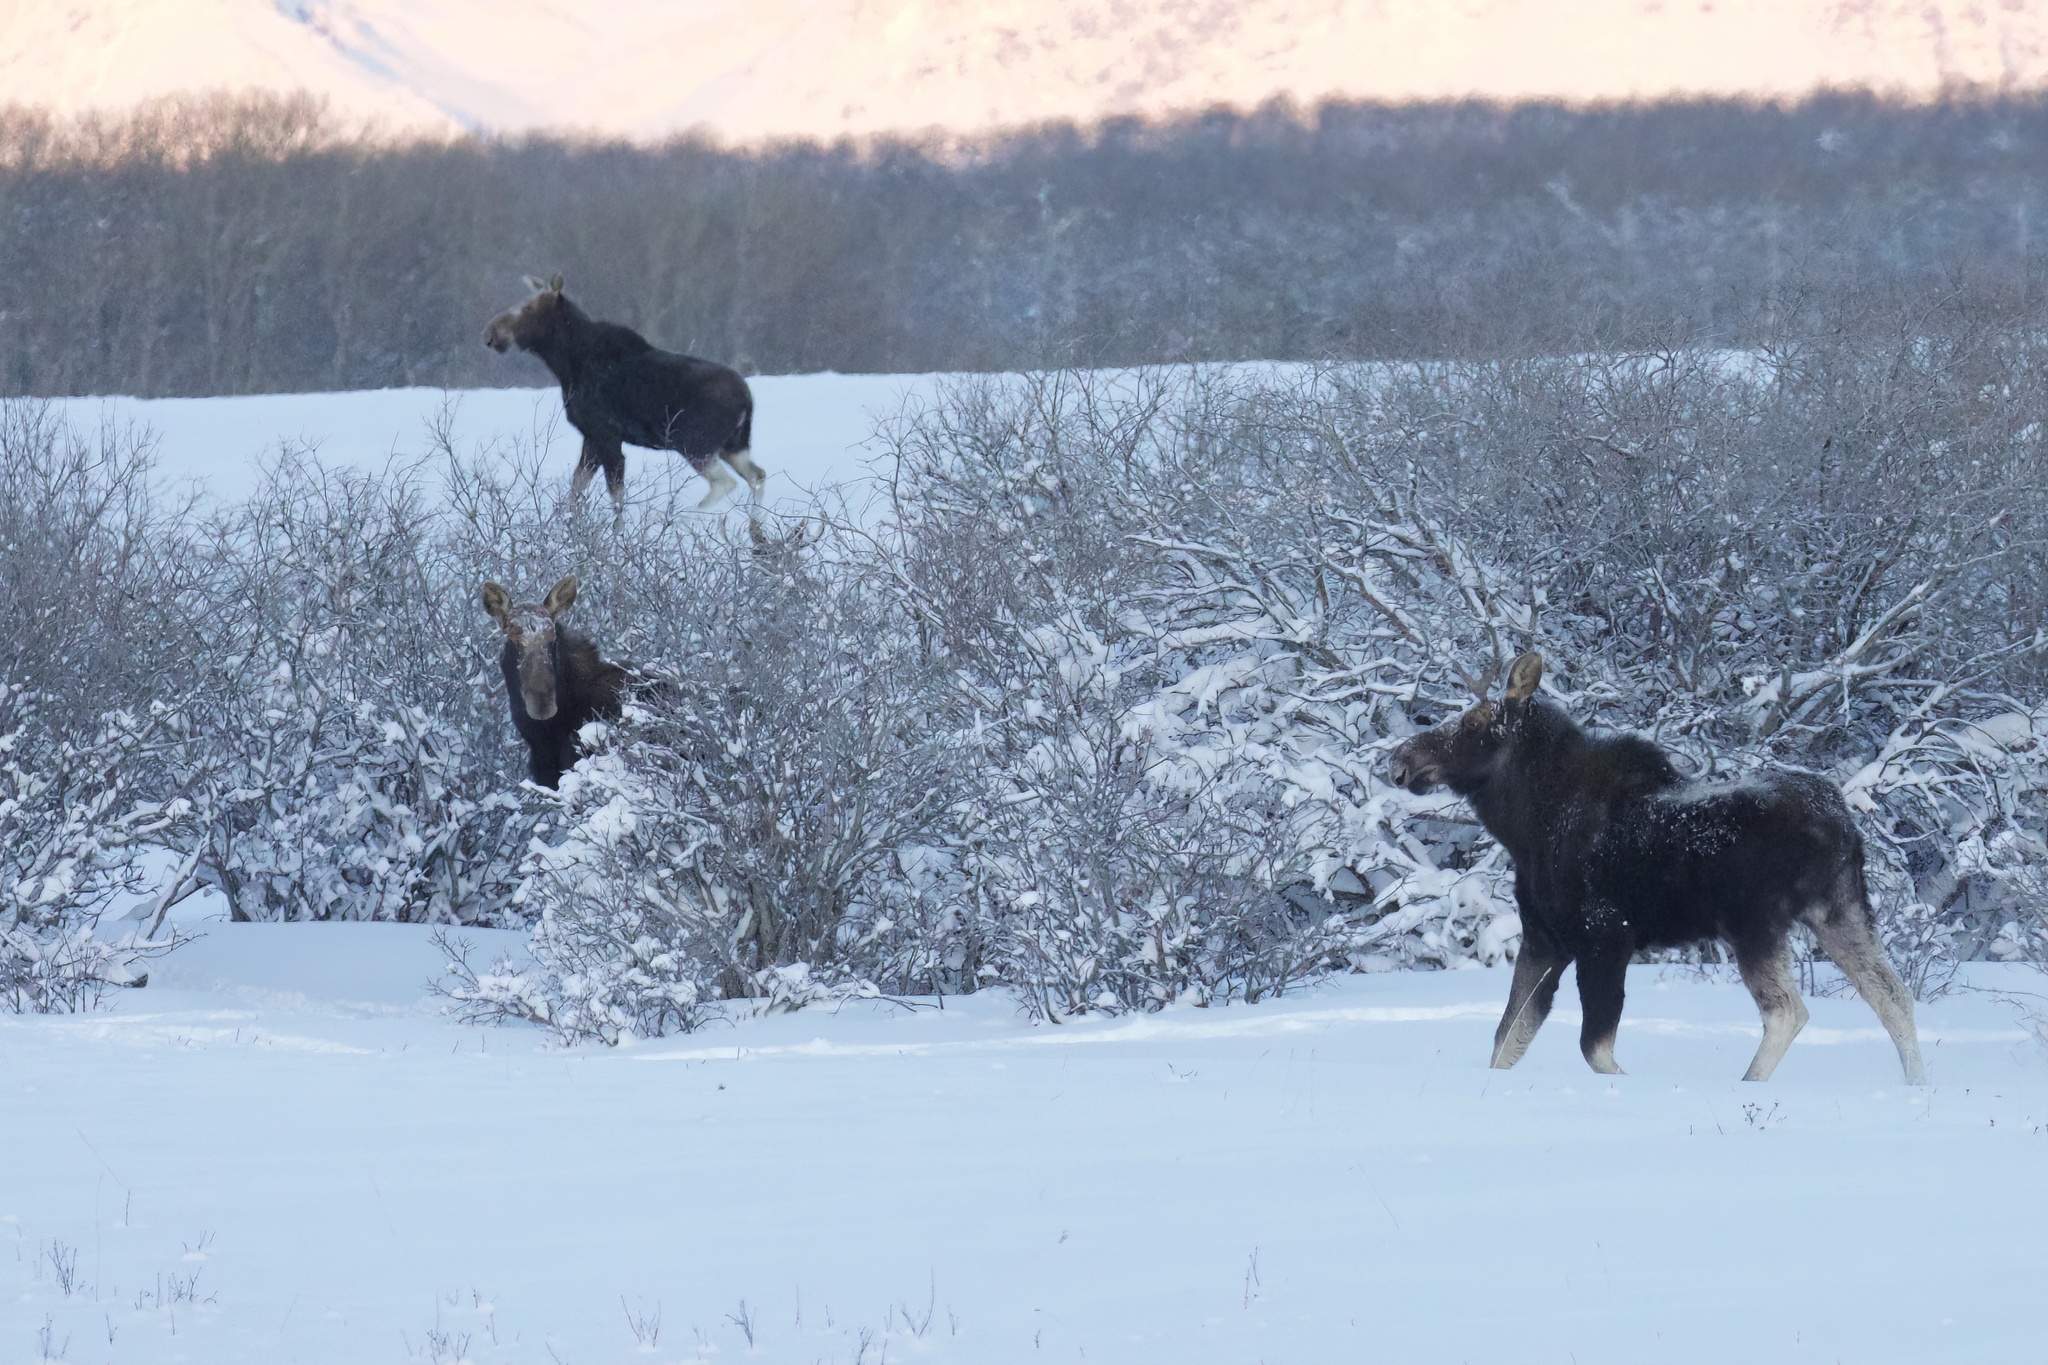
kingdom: Animalia
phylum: Chordata
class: Mammalia
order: Artiodactyla
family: Cervidae
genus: Alces
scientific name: Alces alces
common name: Moose
